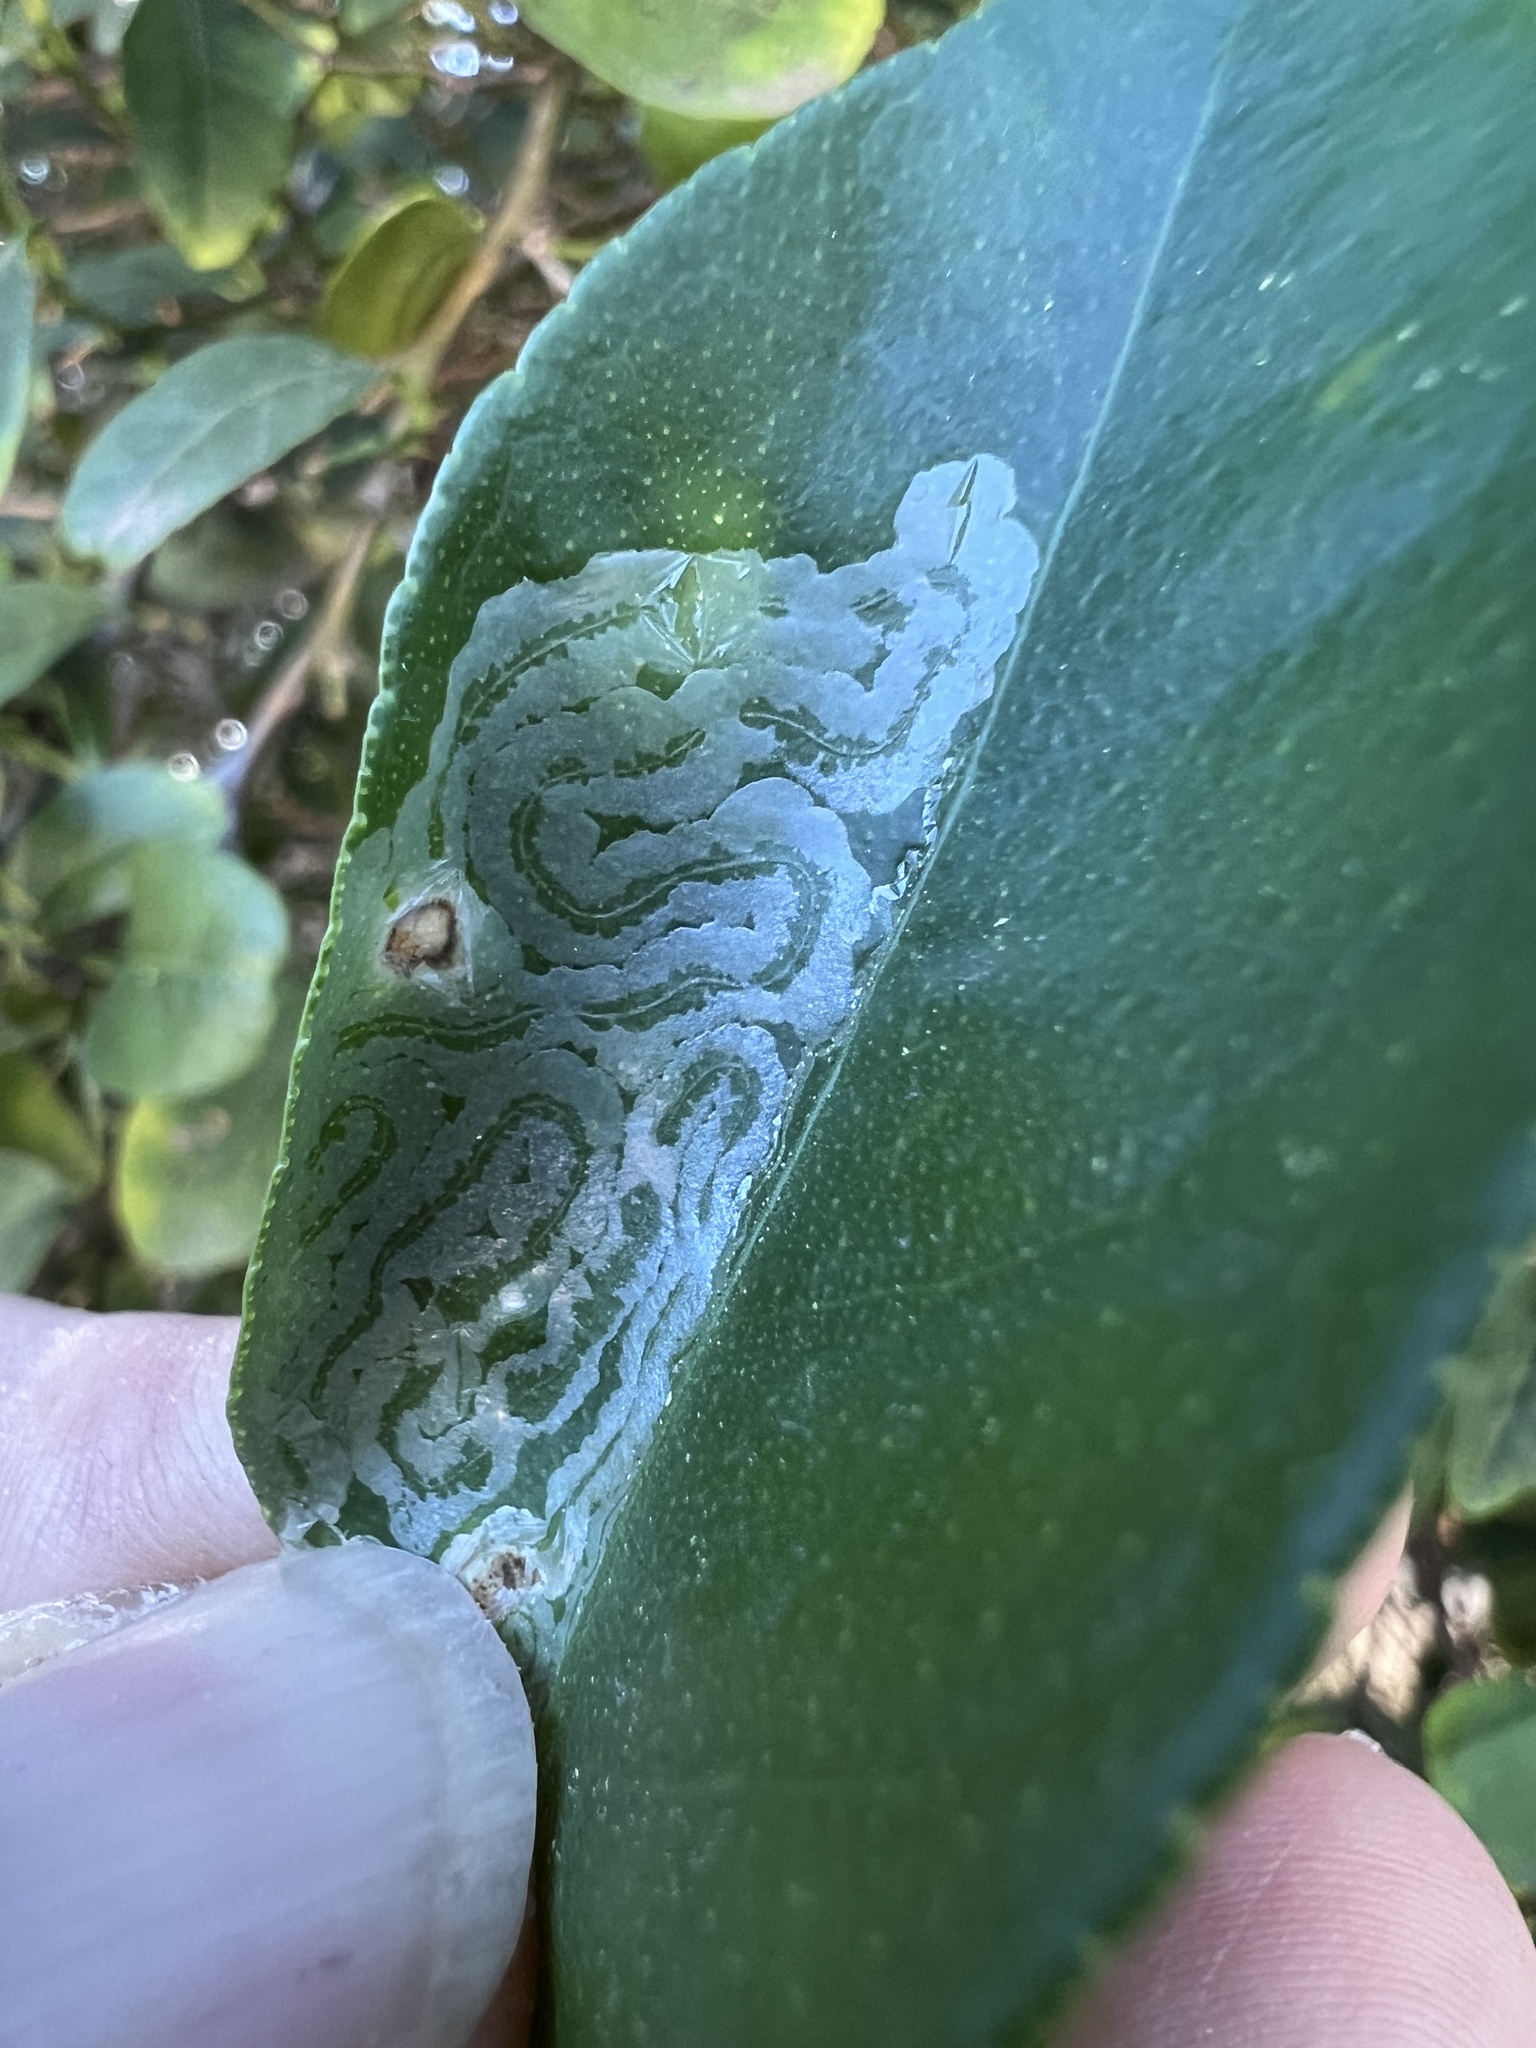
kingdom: Animalia
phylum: Arthropoda
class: Insecta
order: Lepidoptera
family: Gracillariidae
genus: Phyllocnistis
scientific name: Phyllocnistis citrella
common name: Citrus leafminer
